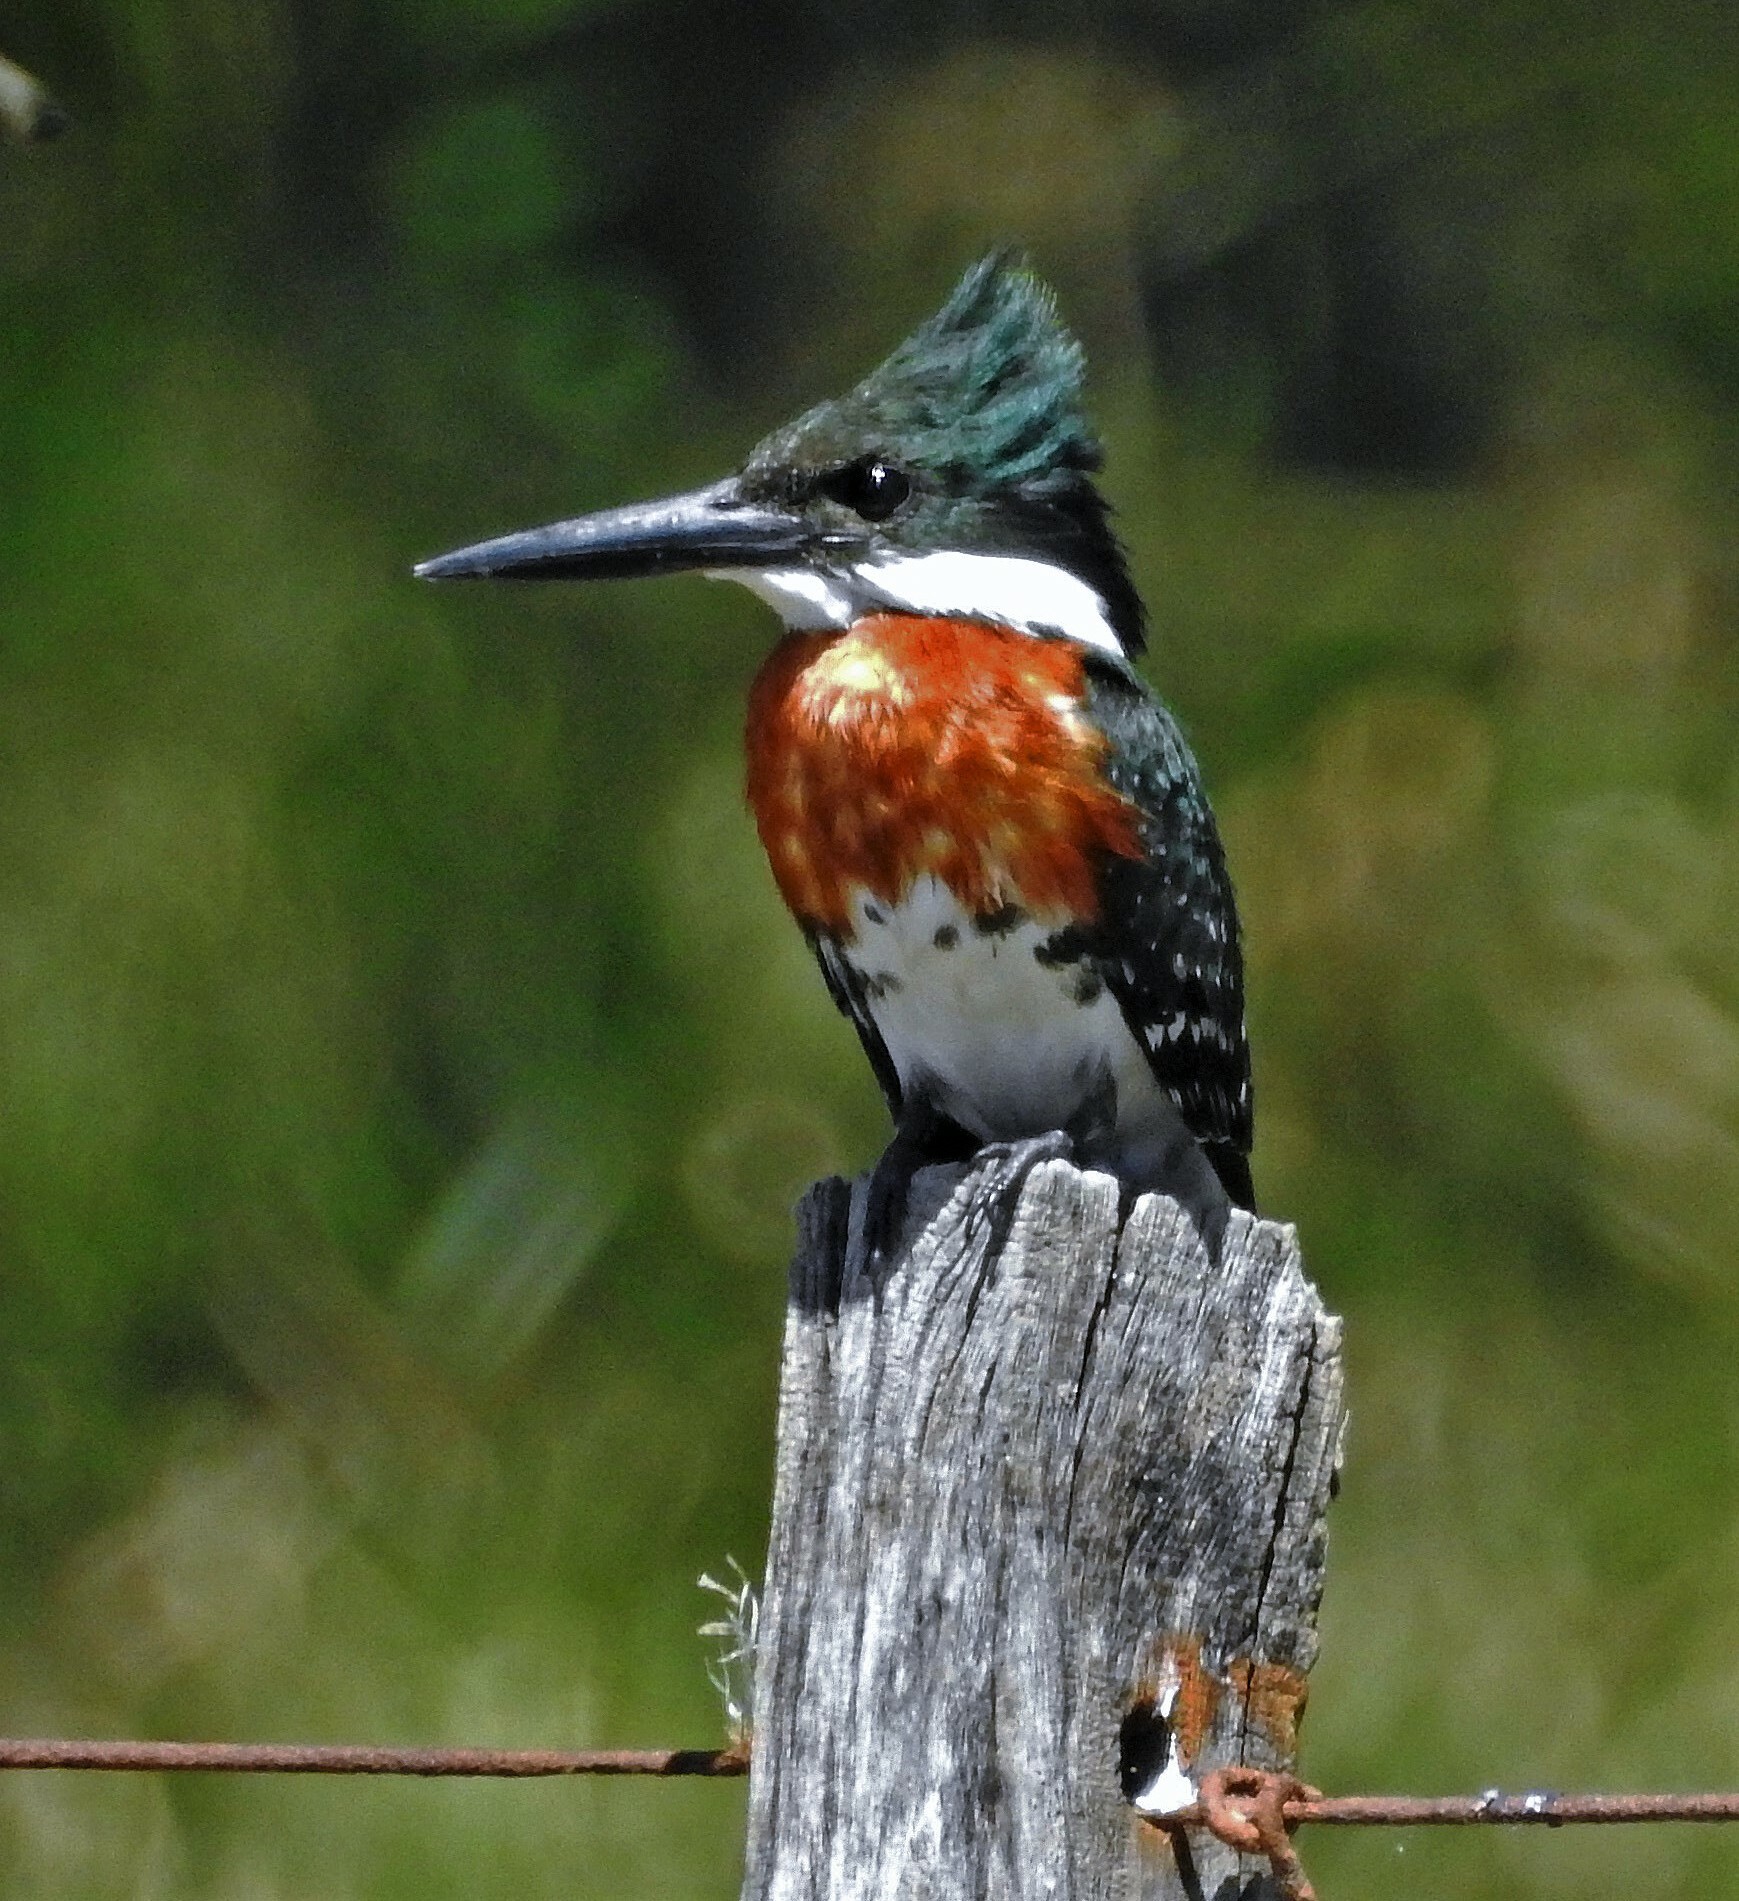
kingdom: Animalia
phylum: Chordata
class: Aves
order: Coraciiformes
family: Alcedinidae
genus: Chloroceryle
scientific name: Chloroceryle americana
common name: Green kingfisher
